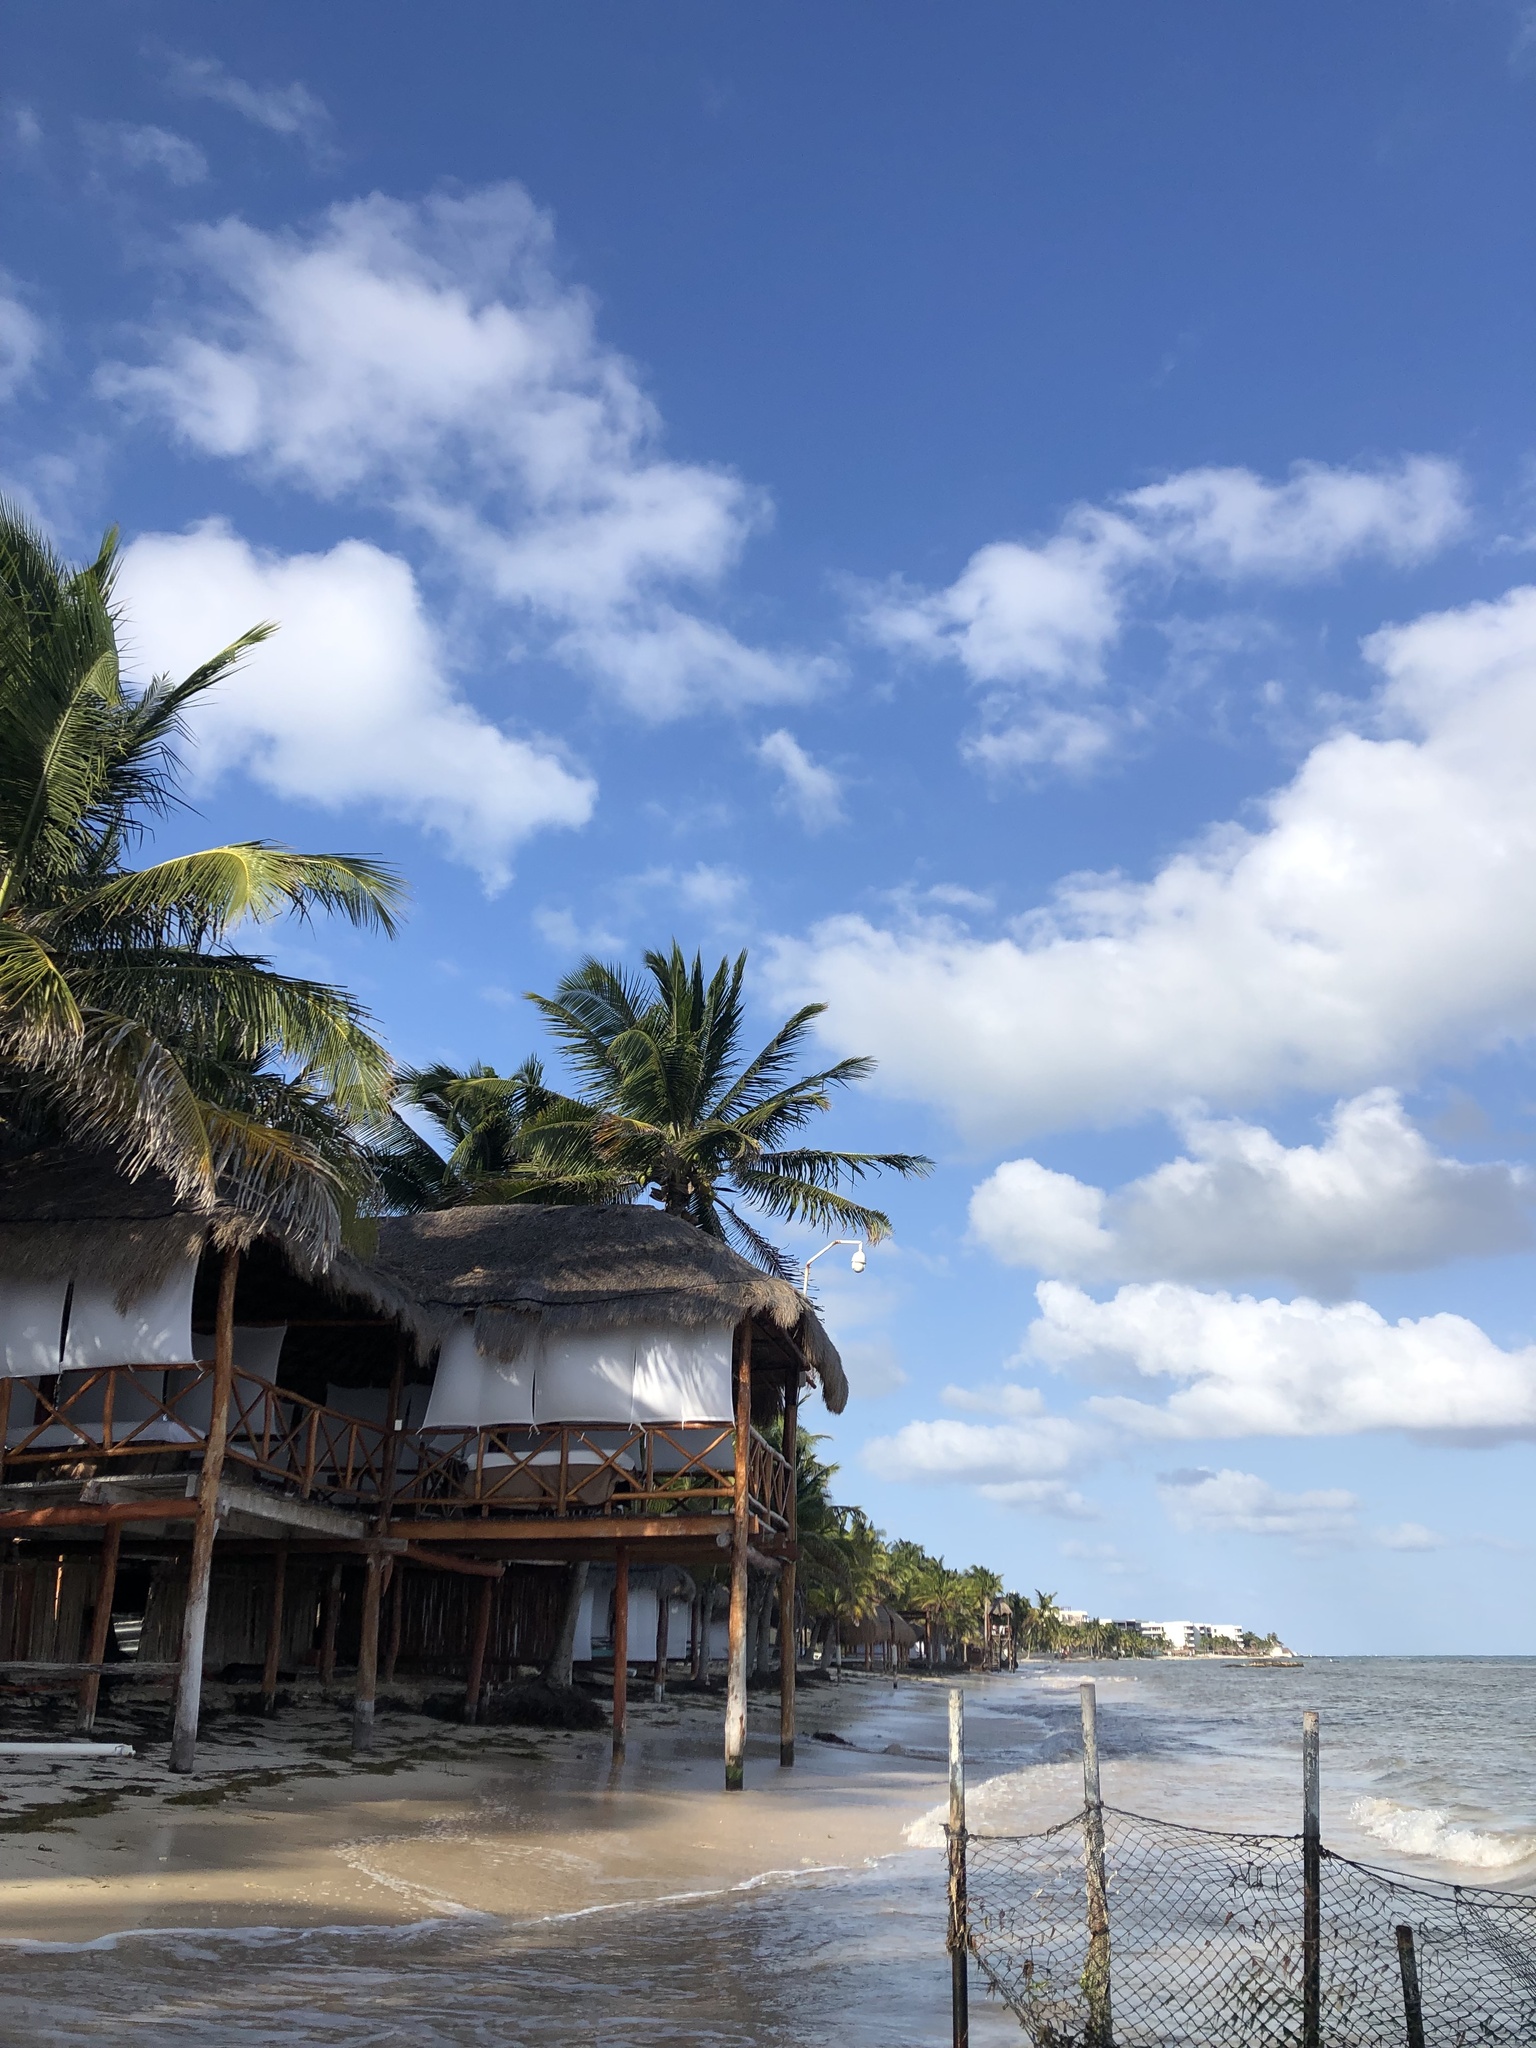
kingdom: Plantae
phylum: Tracheophyta
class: Liliopsida
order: Arecales
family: Arecaceae
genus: Cocos
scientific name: Cocos nucifera
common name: Coconut palm
